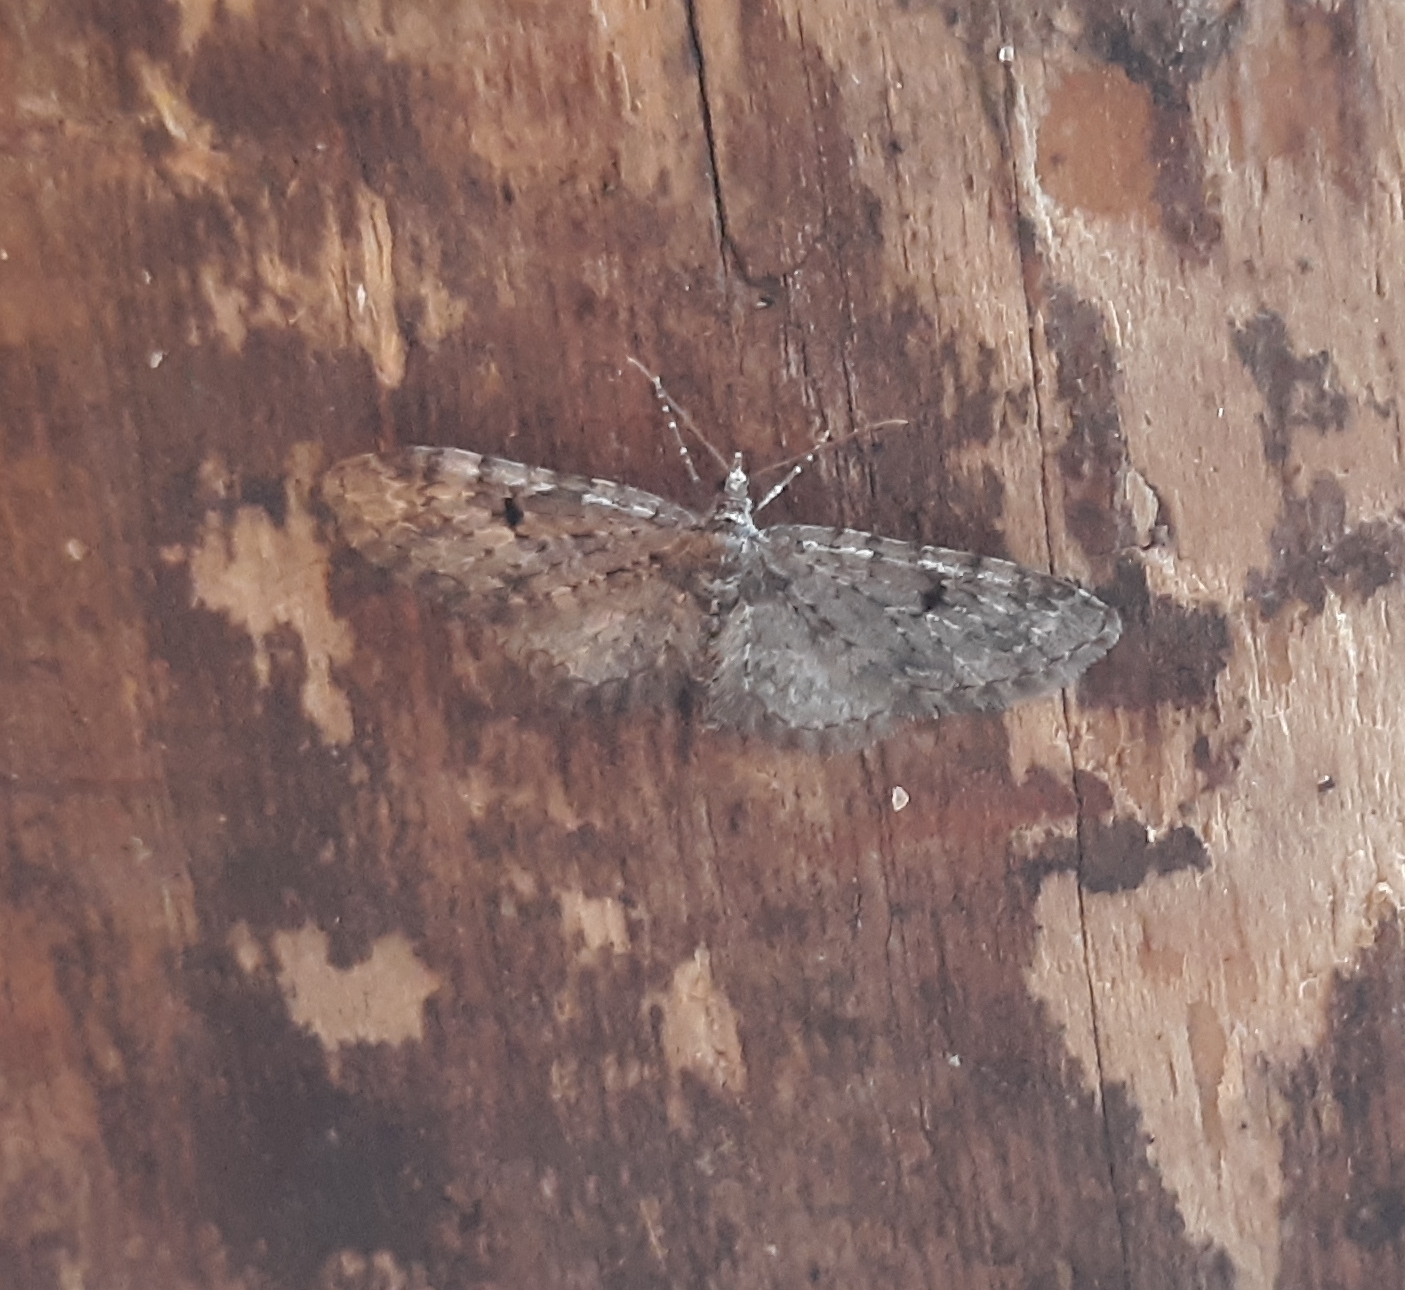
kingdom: Animalia
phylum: Arthropoda
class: Insecta
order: Lepidoptera
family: Geometridae
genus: Eupithecia
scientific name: Eupithecia tripunctaria
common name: White-spotted pug
